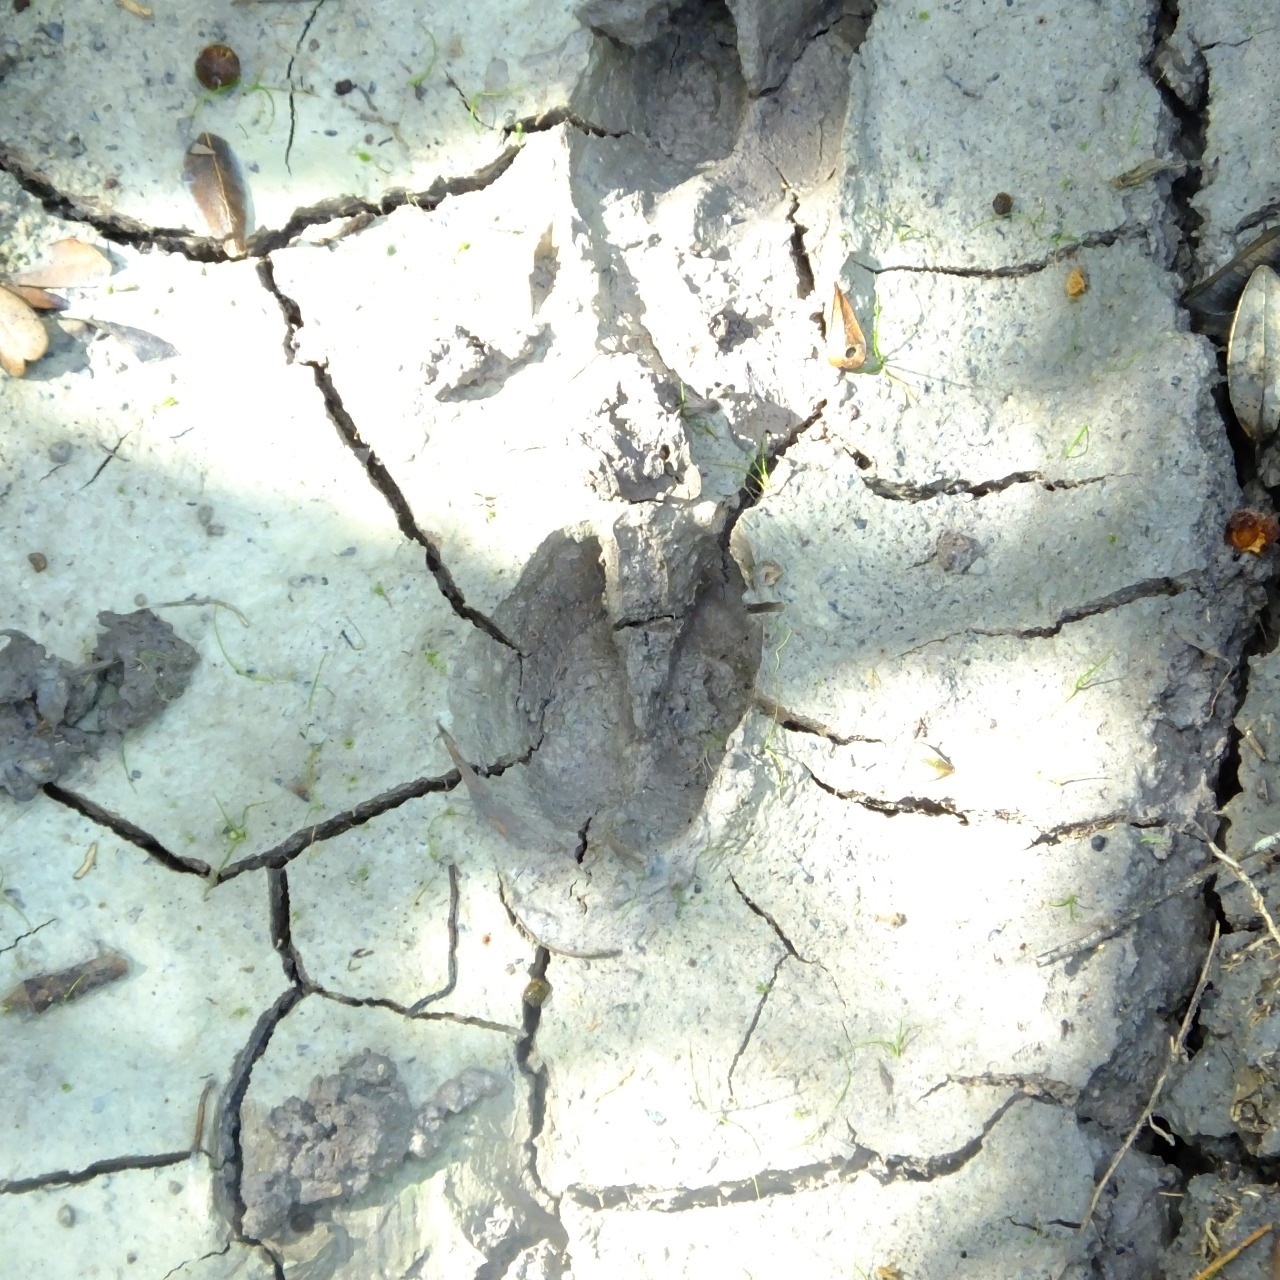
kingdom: Animalia
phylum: Chordata
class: Mammalia
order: Artiodactyla
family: Tayassuidae
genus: Pecari
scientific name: Pecari tajacu
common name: Collared peccary
